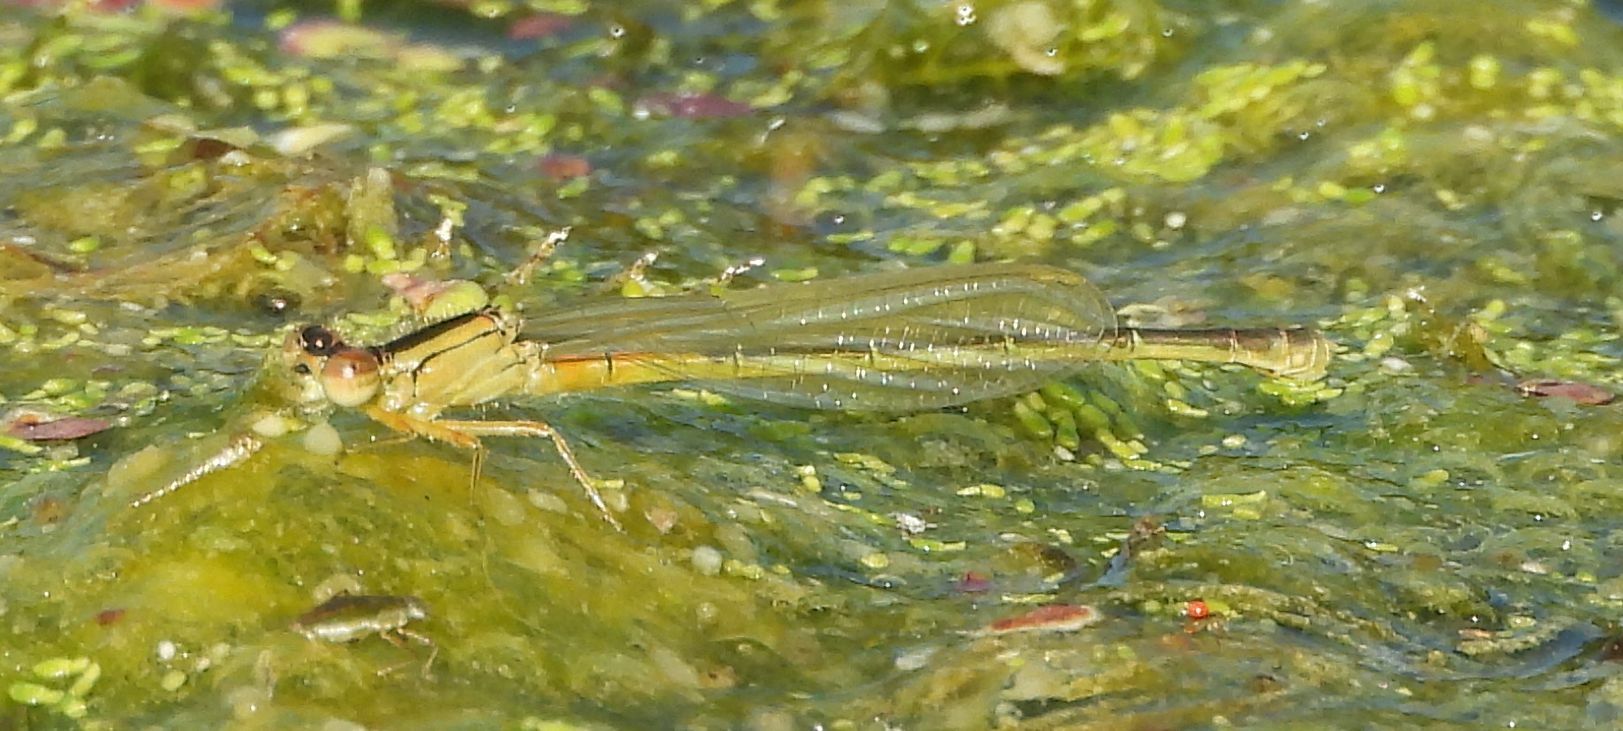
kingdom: Animalia
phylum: Arthropoda
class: Insecta
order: Odonata
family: Coenagrionidae
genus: Ischnura
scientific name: Ischnura verticalis
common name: Eastern forktail
